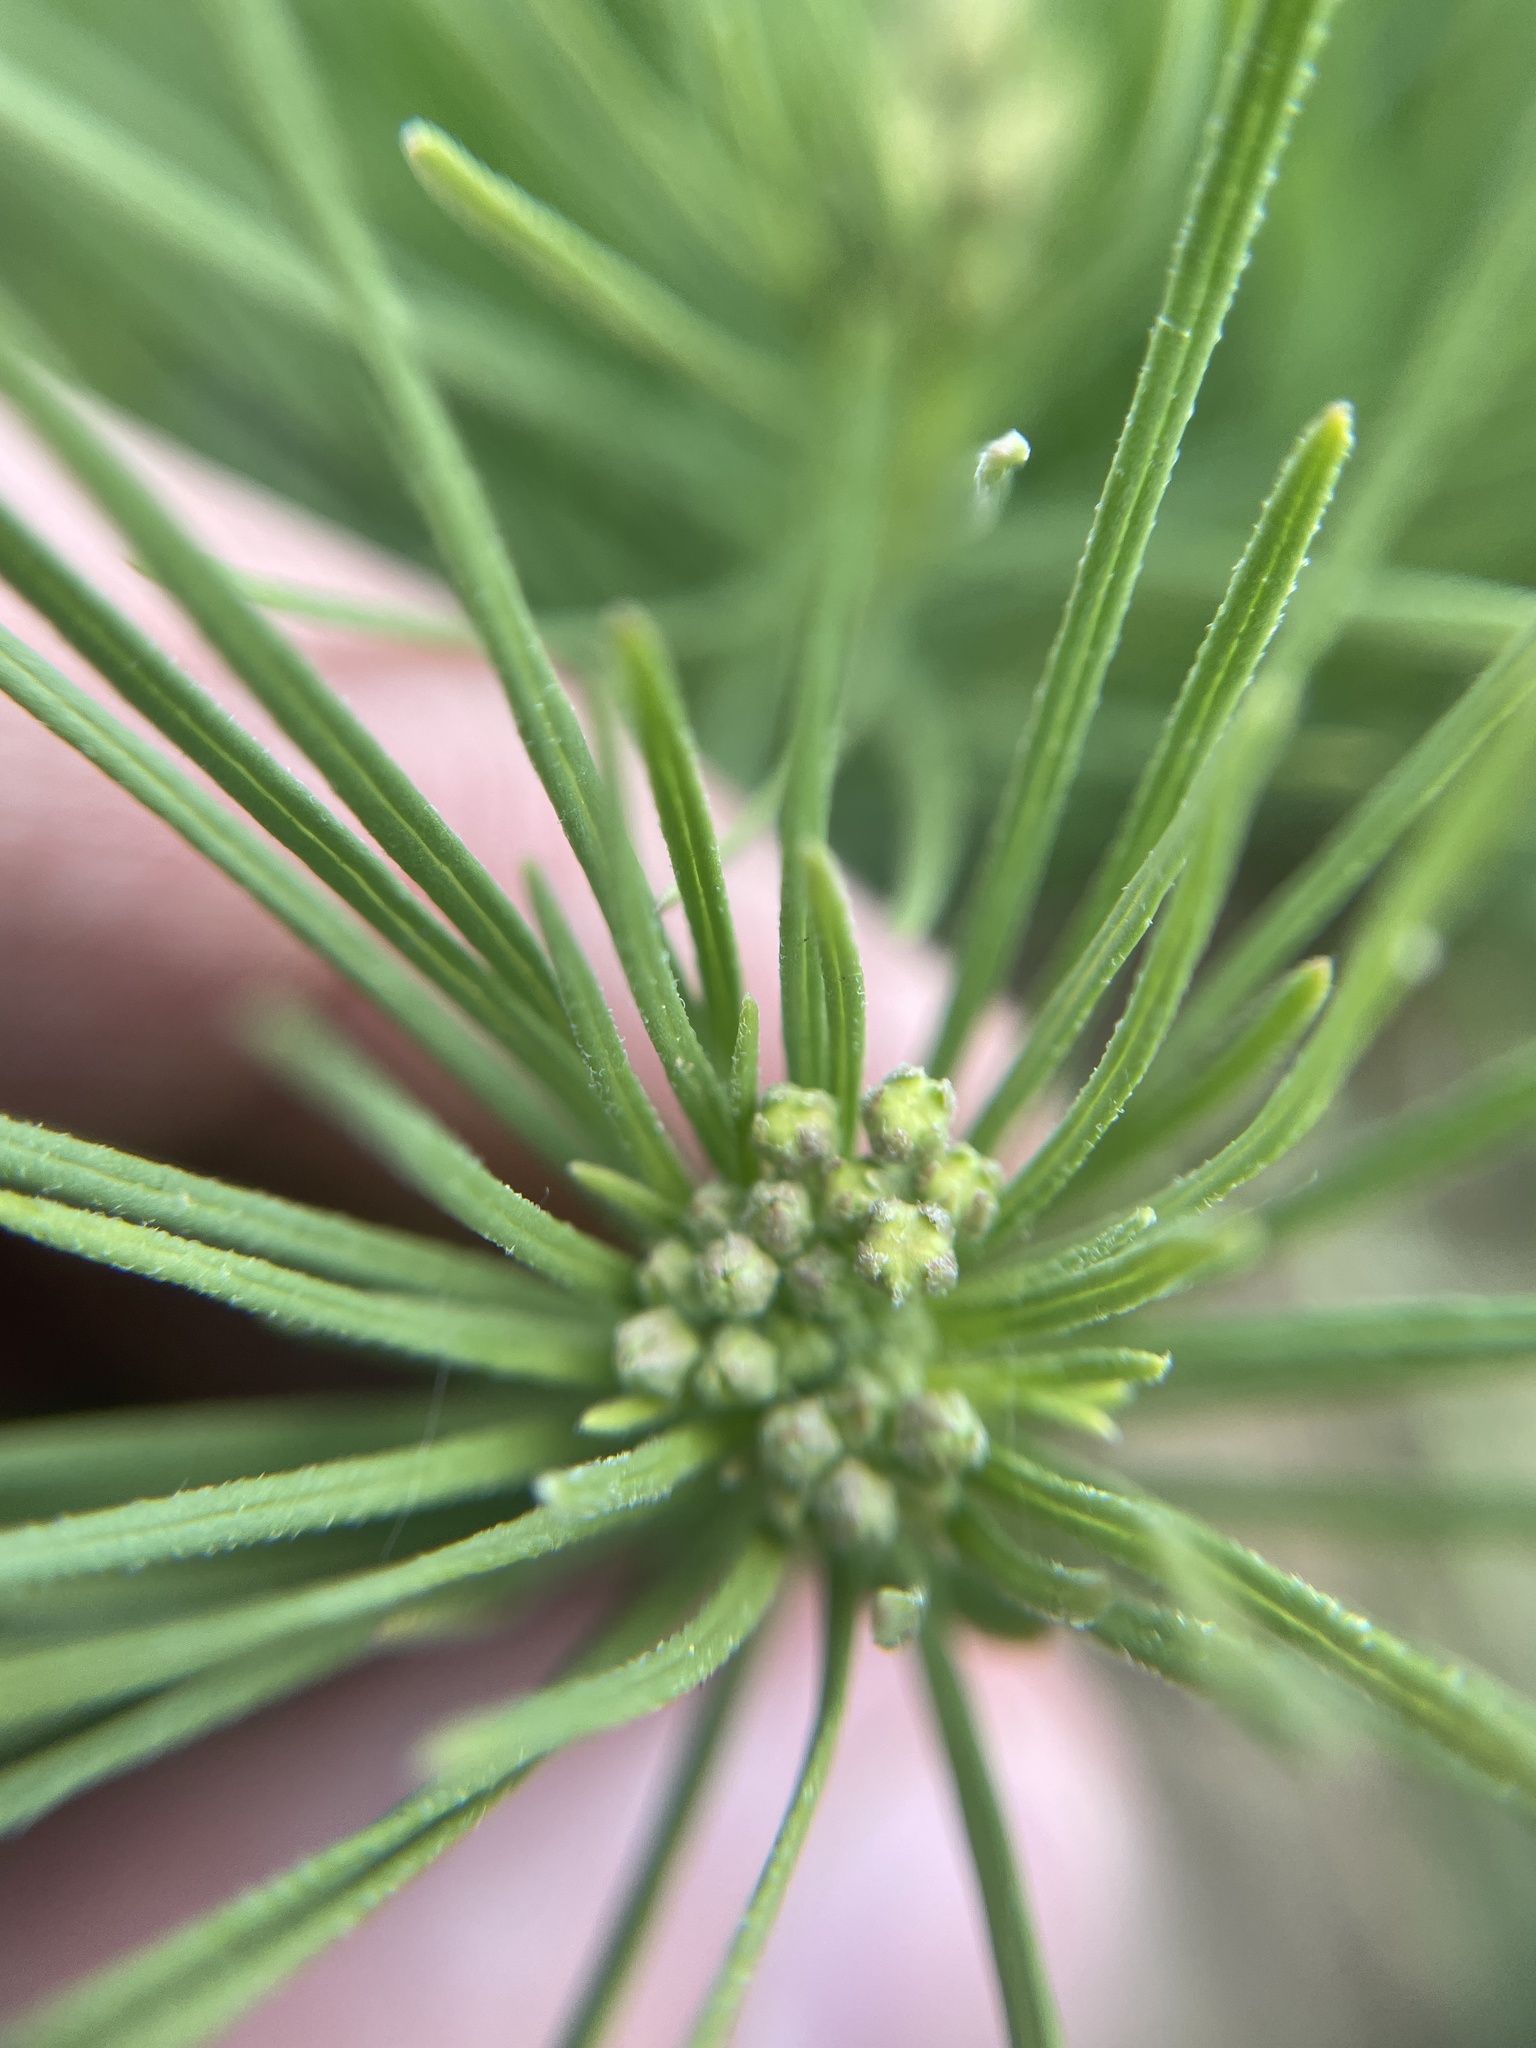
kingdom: Plantae
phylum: Tracheophyta
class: Magnoliopsida
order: Gentianales
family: Apocynaceae
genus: Asclepias
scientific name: Asclepias pumila
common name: Dwarf milkweed
